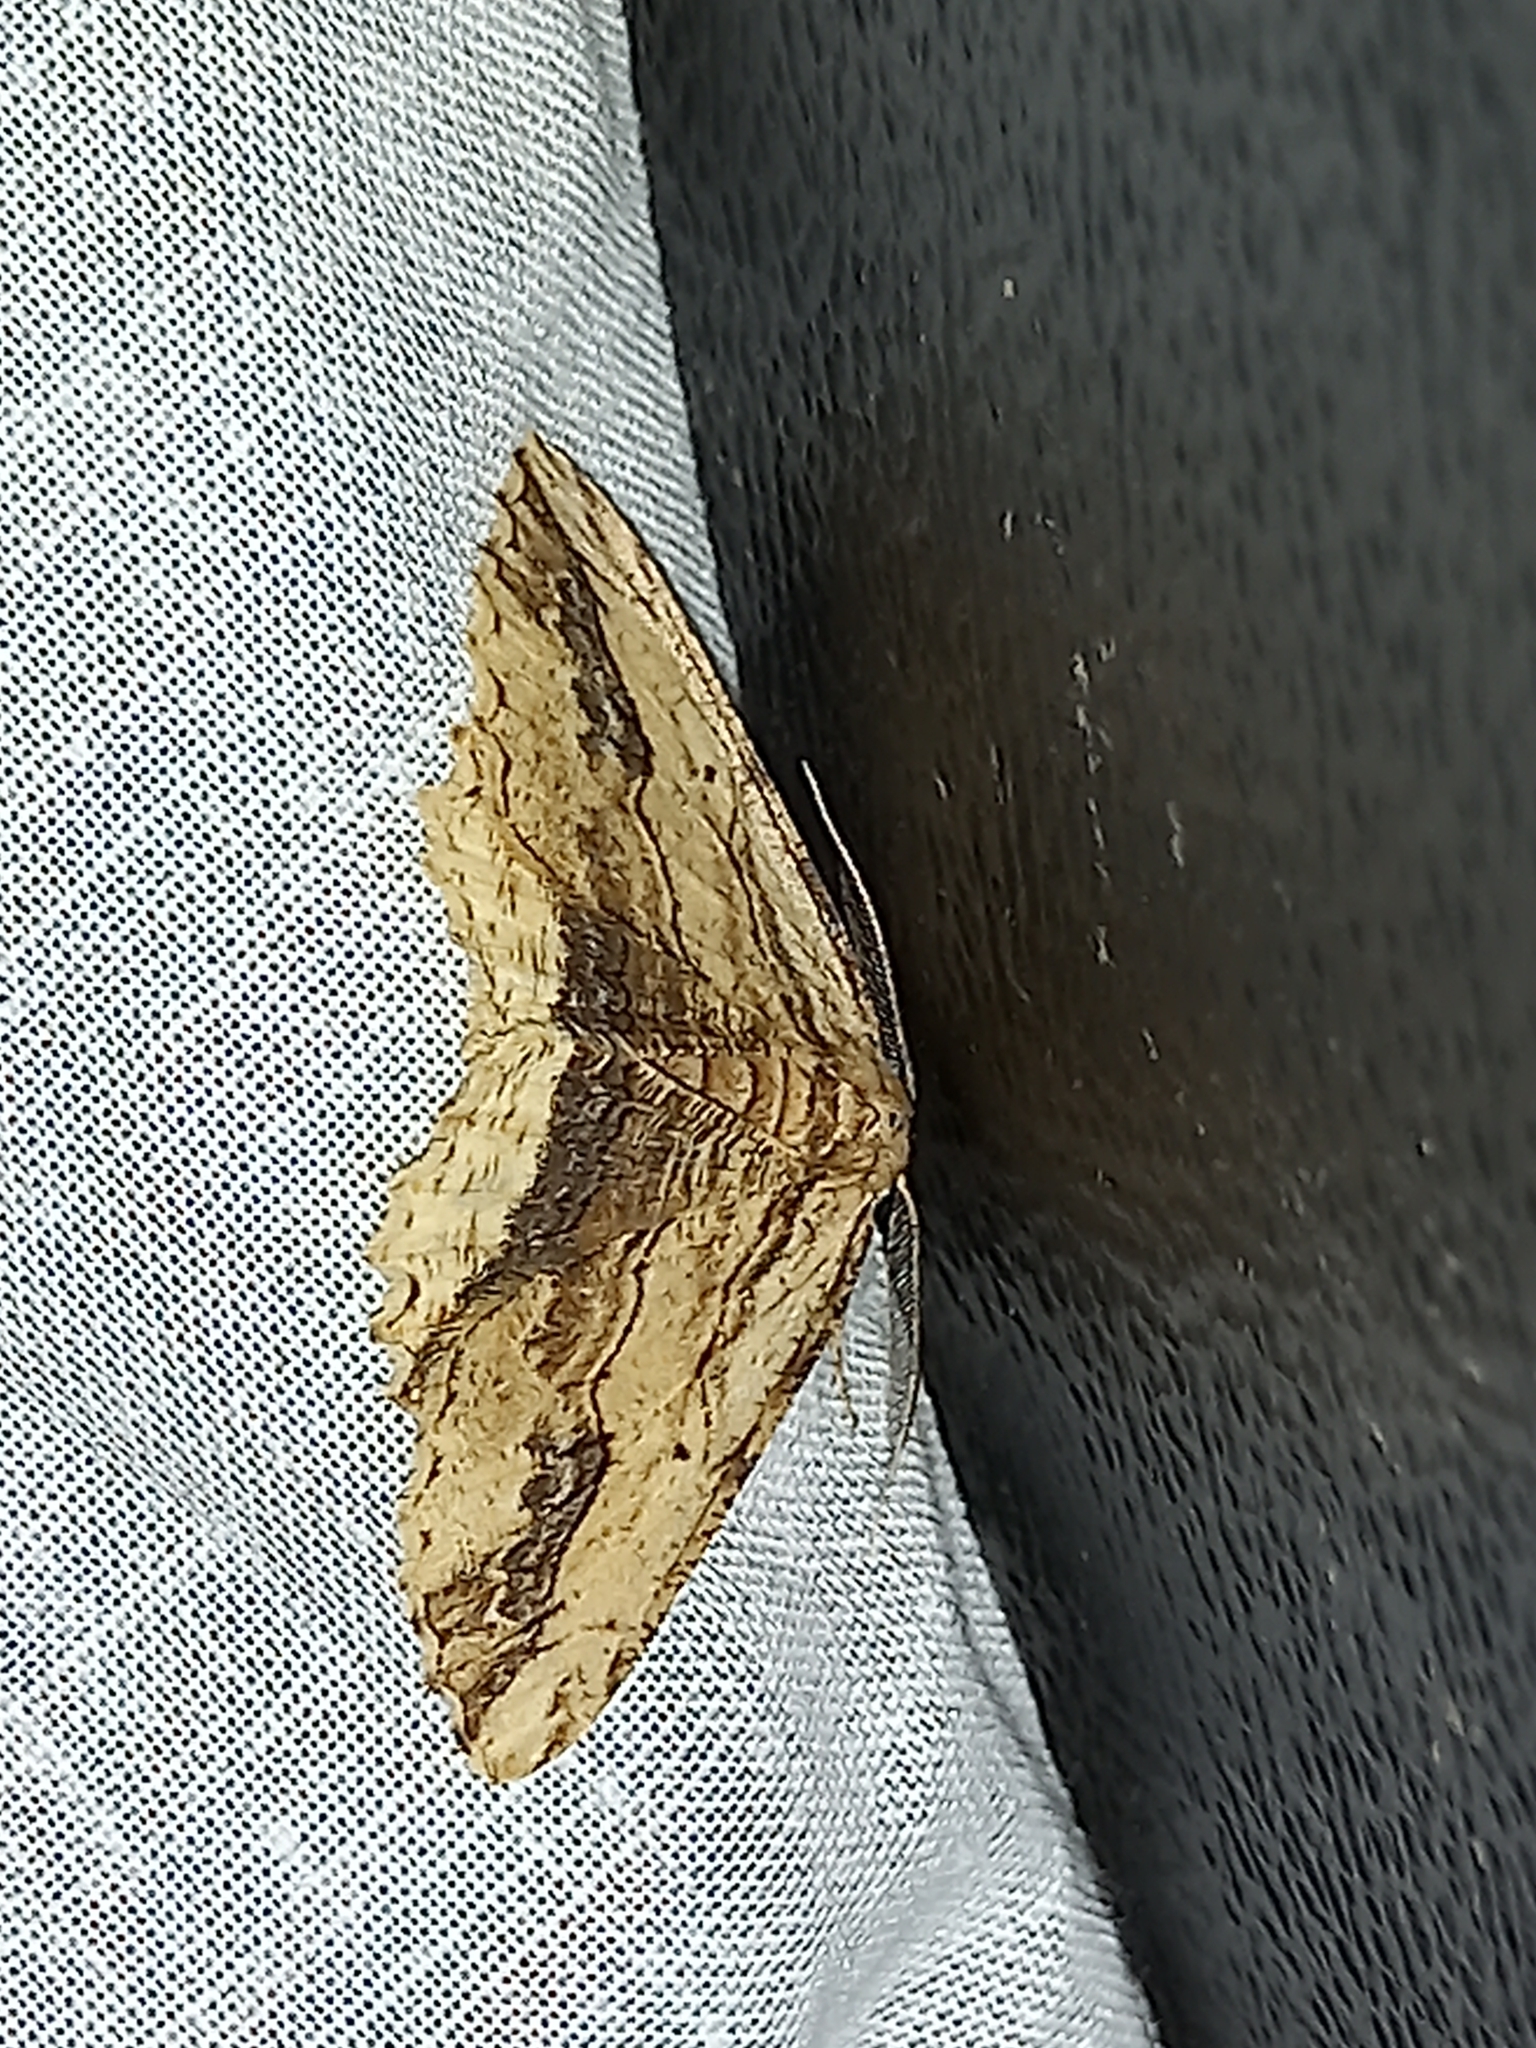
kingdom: Animalia
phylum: Arthropoda
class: Insecta
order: Lepidoptera
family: Geometridae
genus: Menophra
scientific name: Menophra abruptaria
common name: Waved umber
